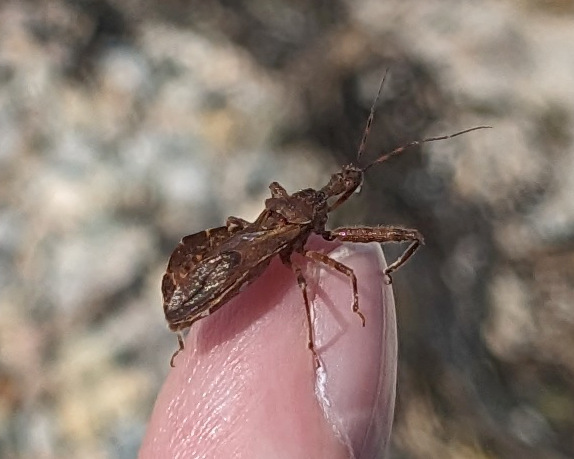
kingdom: Animalia
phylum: Arthropoda
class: Insecta
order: Hemiptera
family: Reduviidae
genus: Acholla
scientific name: Acholla multispinosa
